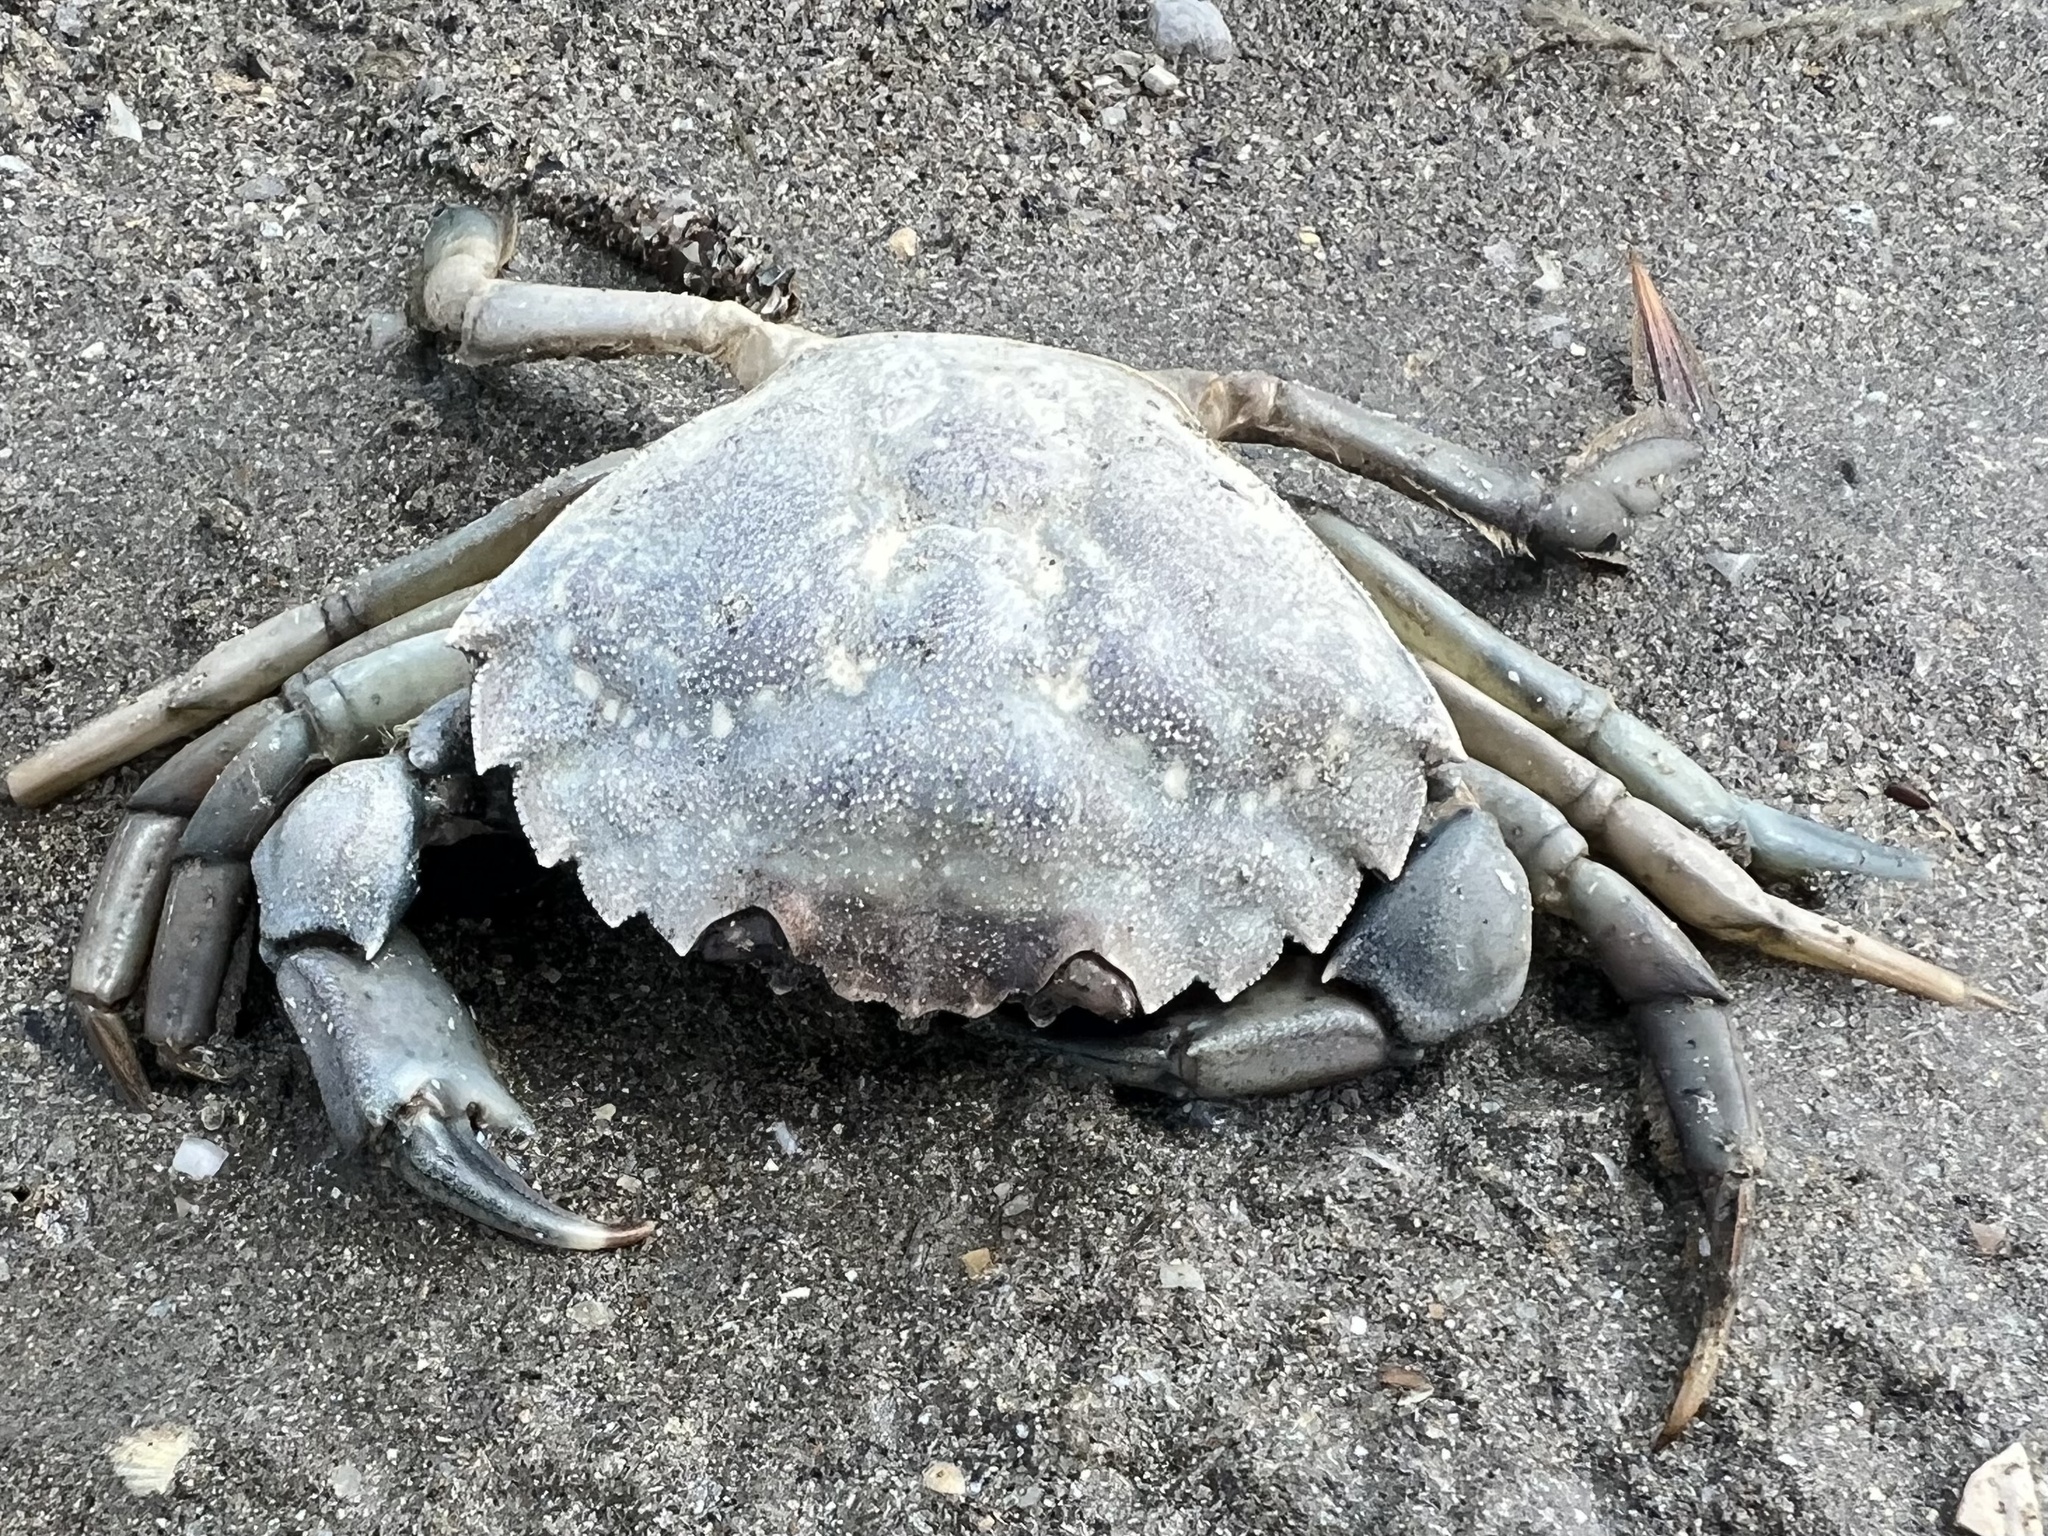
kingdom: Animalia
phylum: Arthropoda
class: Malacostraca
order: Decapoda
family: Carcinidae
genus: Carcinus
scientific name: Carcinus maenas
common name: European green crab
